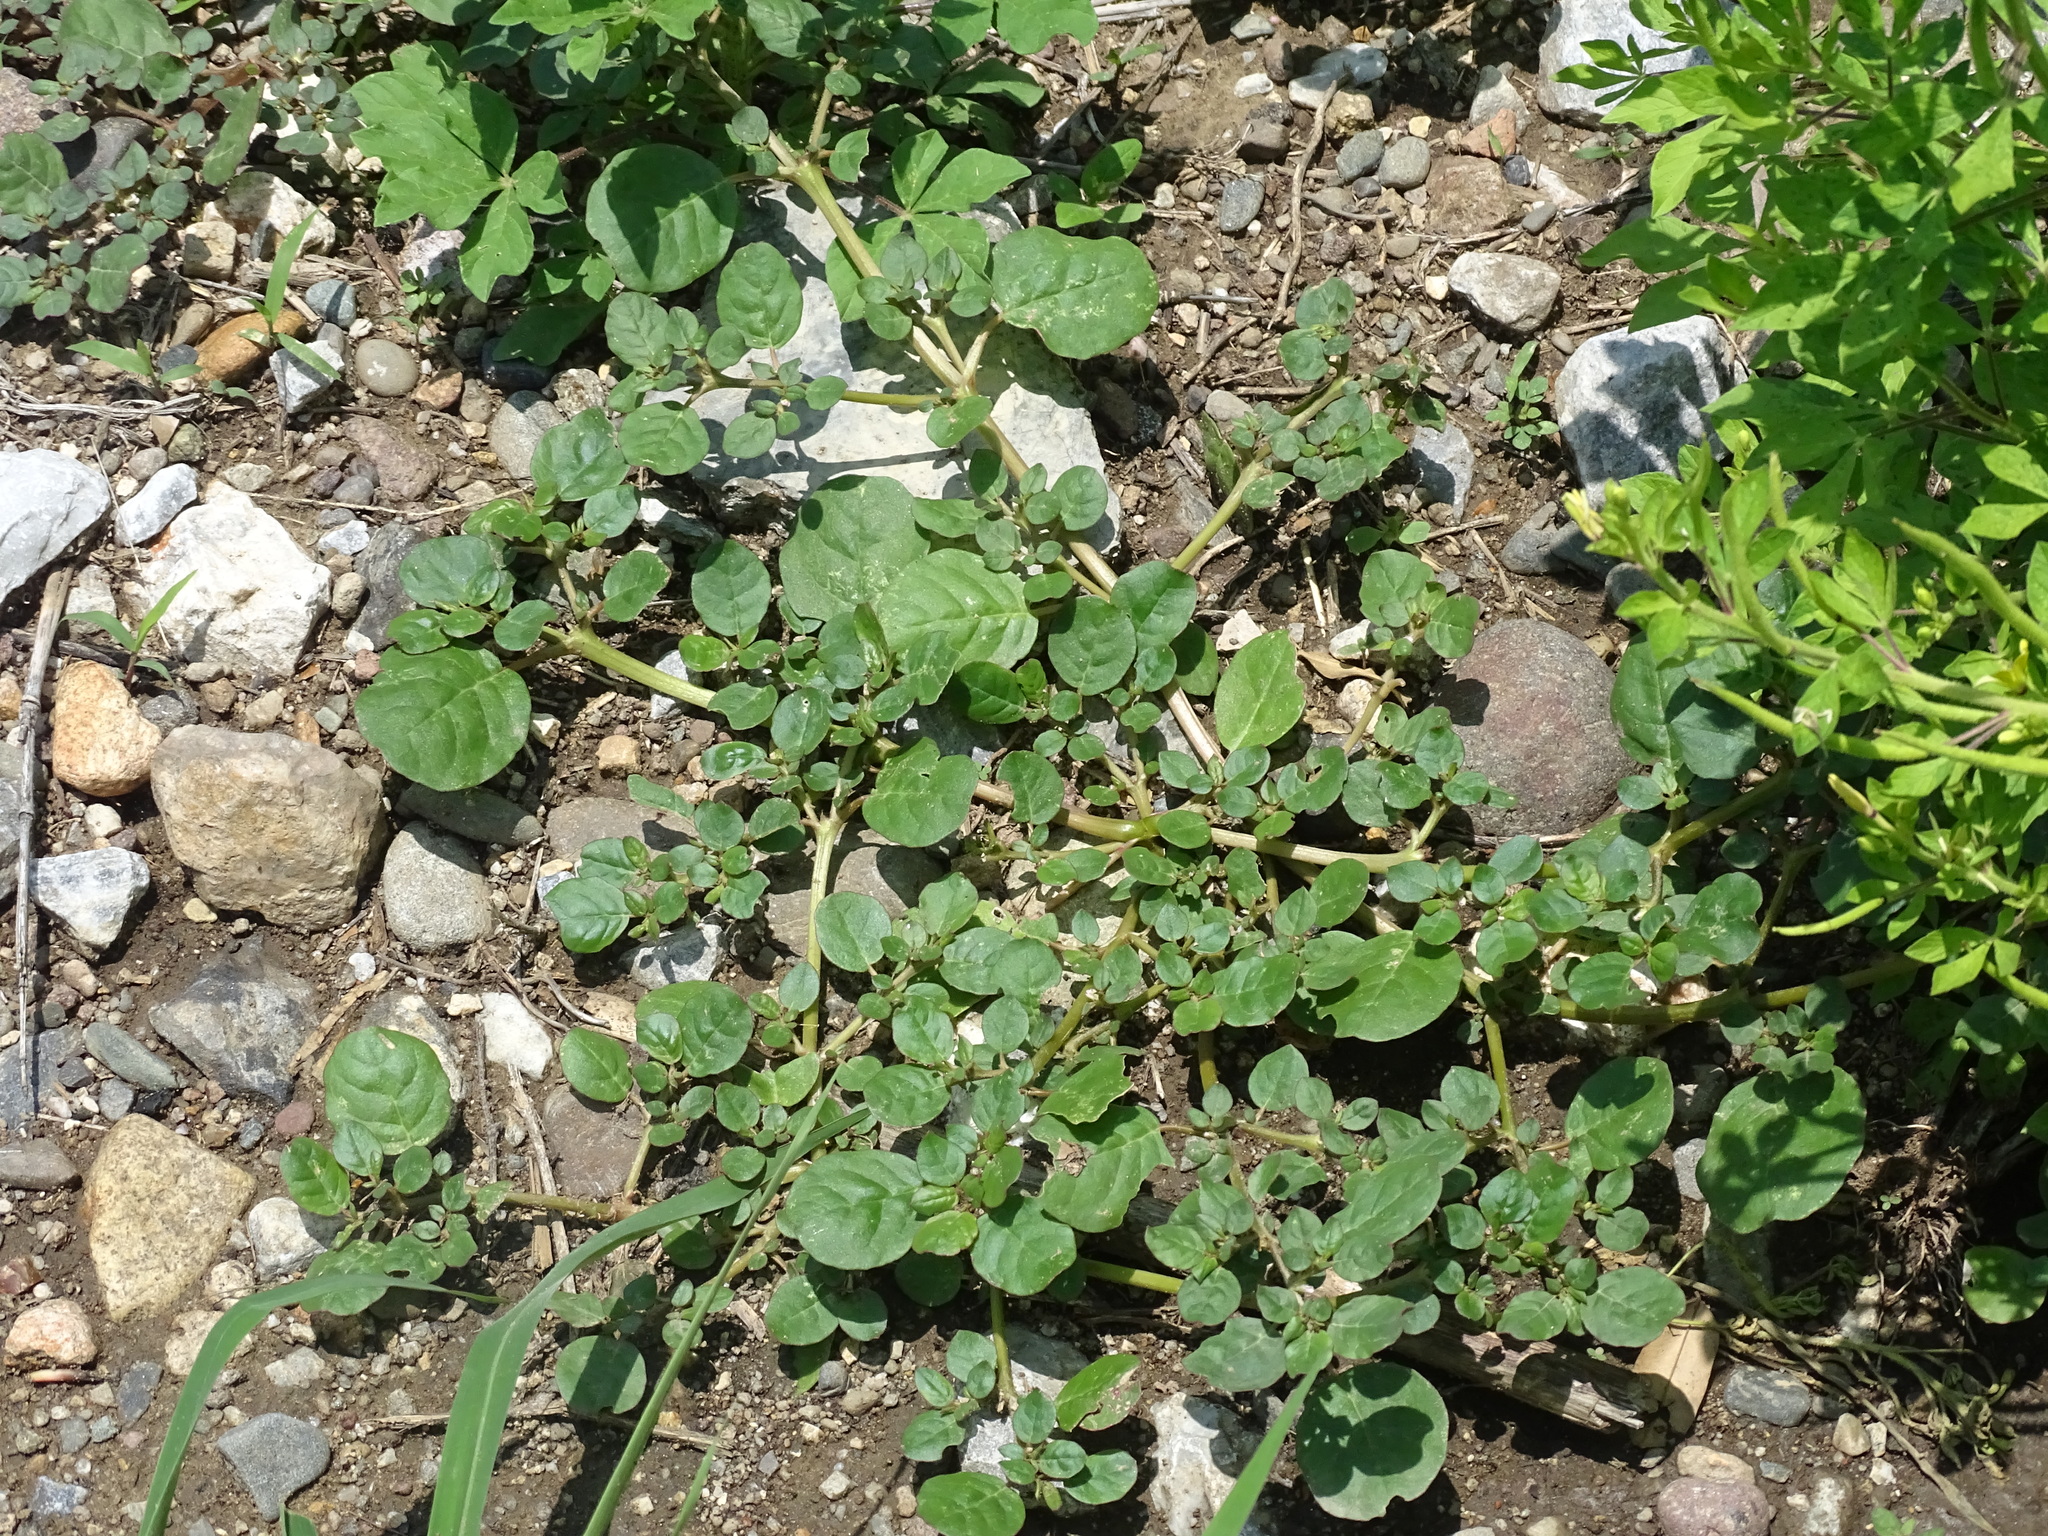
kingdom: Plantae
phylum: Tracheophyta
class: Magnoliopsida
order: Caryophyllales
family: Aizoaceae
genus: Trianthema
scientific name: Trianthema portulacastrum
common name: Desert horsepurslane
